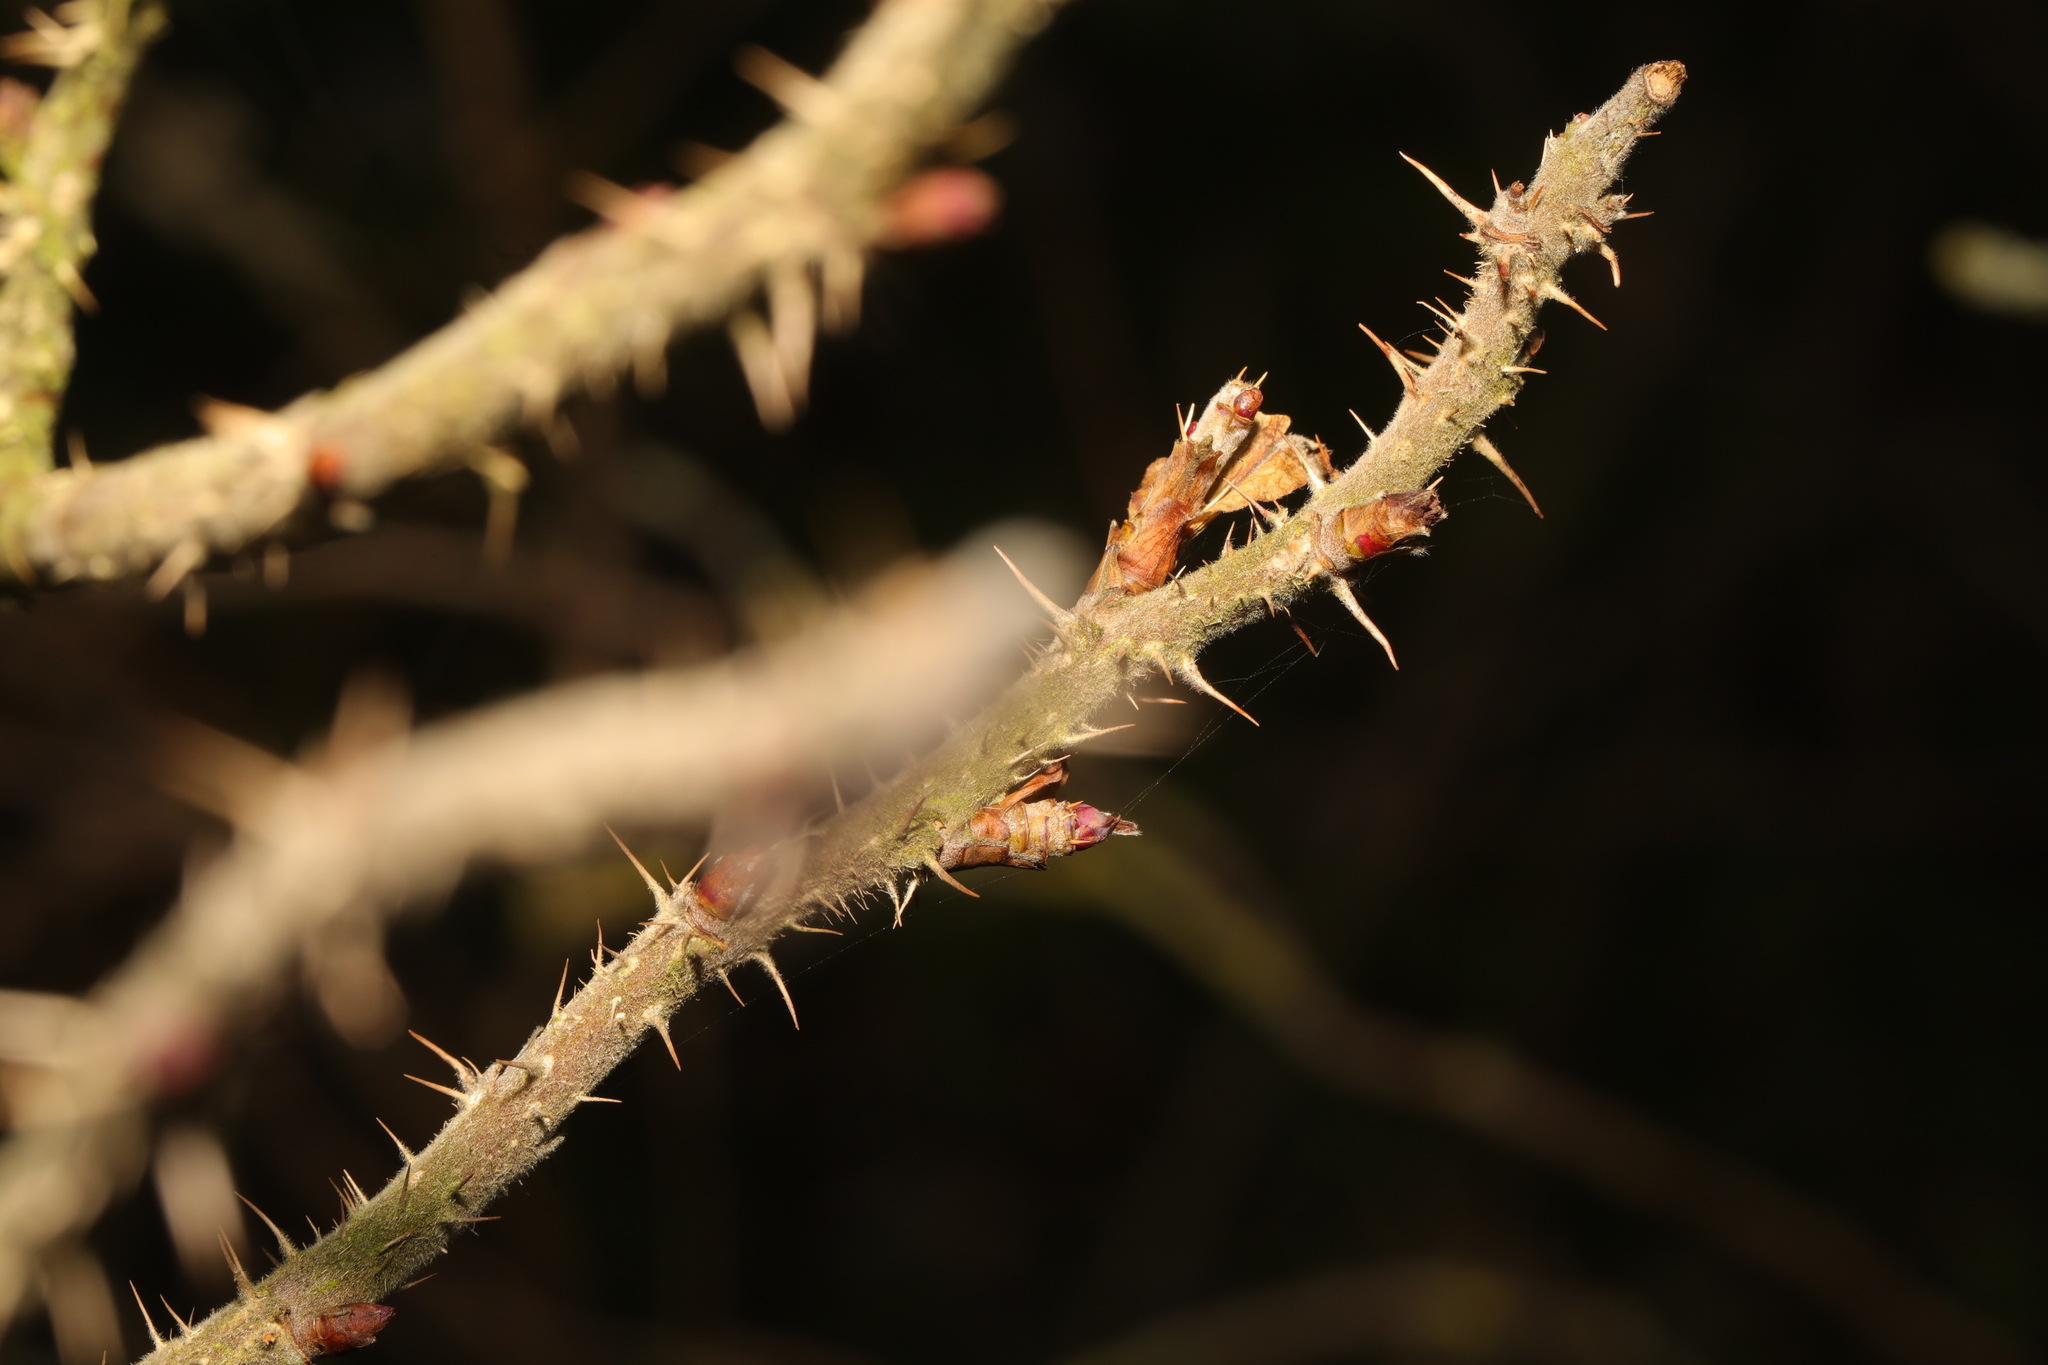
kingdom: Plantae
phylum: Tracheophyta
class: Magnoliopsida
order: Rosales
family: Rosaceae
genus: Rosa
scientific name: Rosa rugosa
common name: Japanese rose
